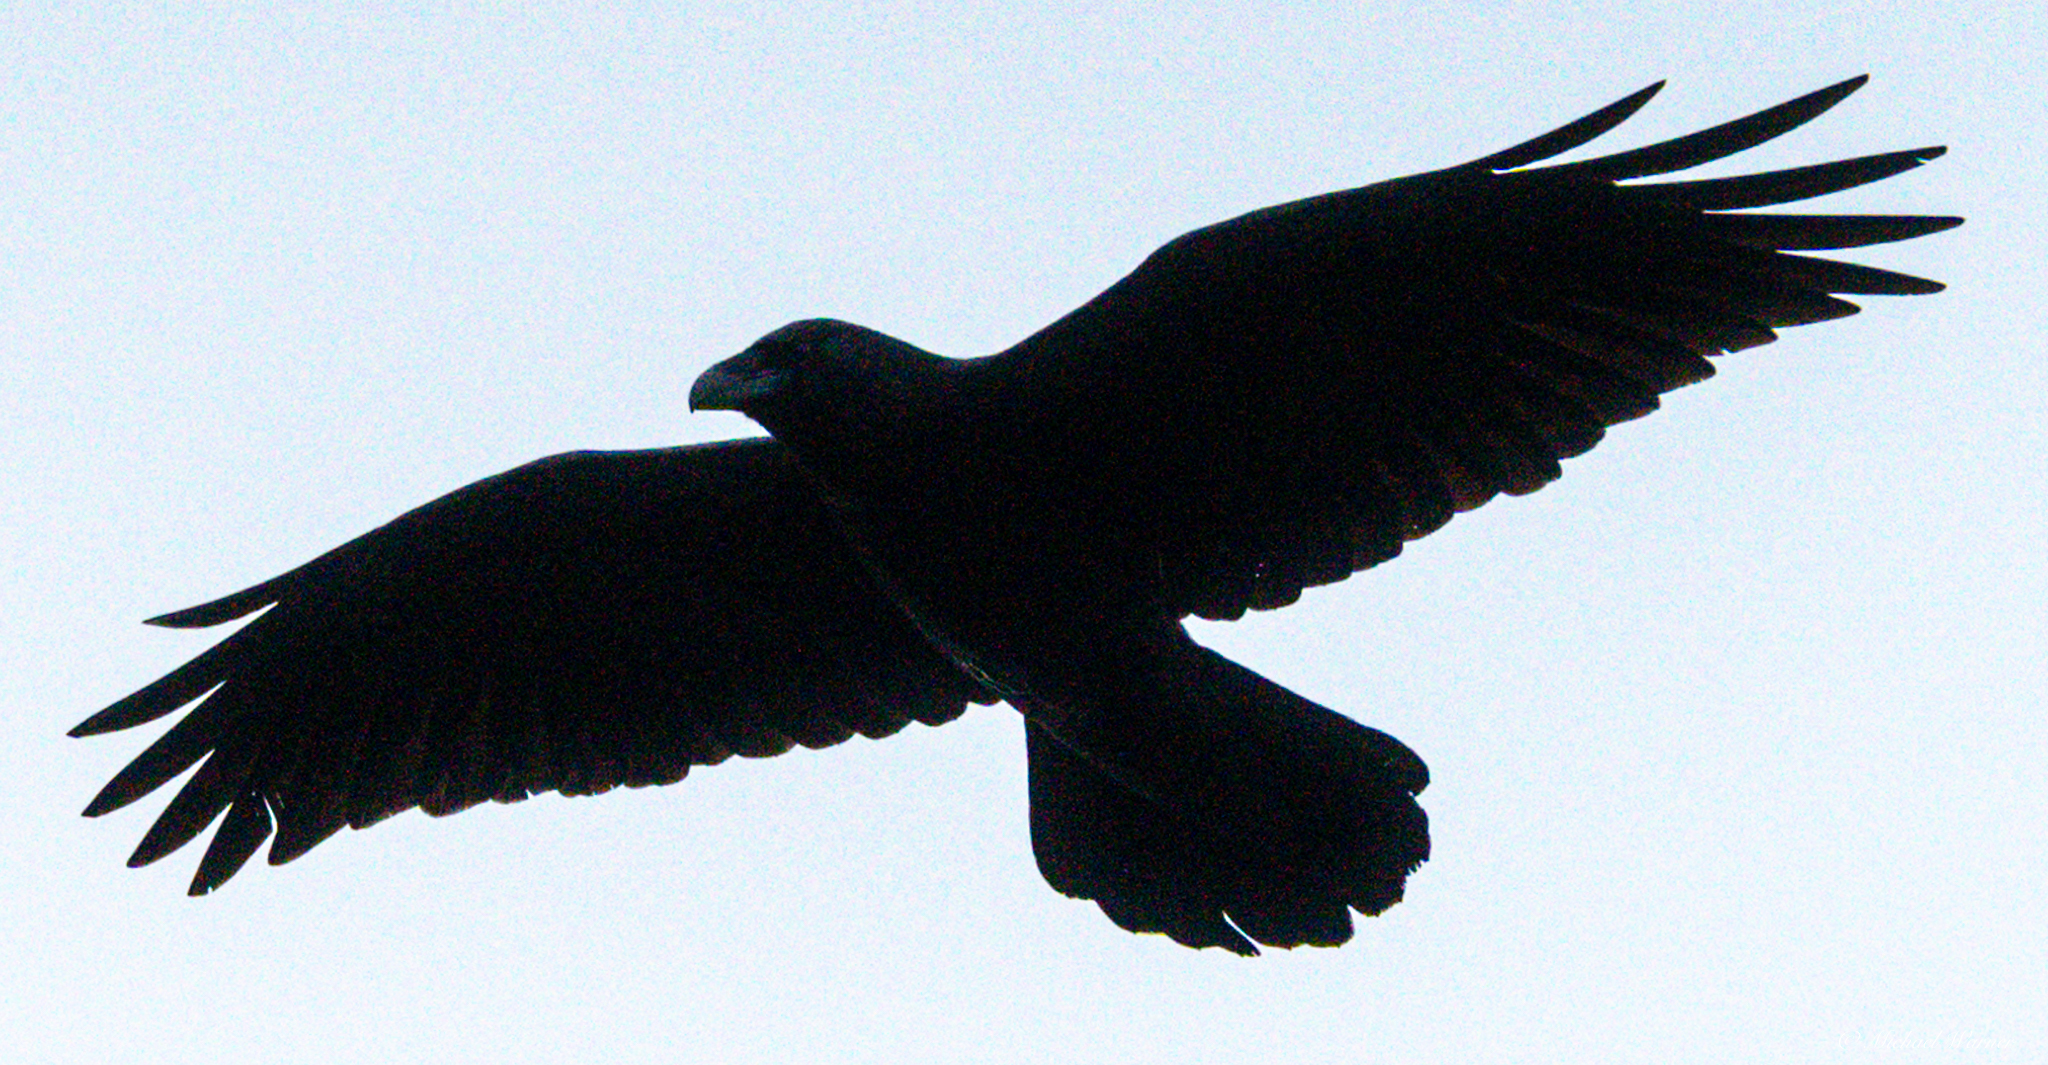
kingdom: Animalia
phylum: Chordata
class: Aves
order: Passeriformes
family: Corvidae
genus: Corvus
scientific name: Corvus corax
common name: Common raven
